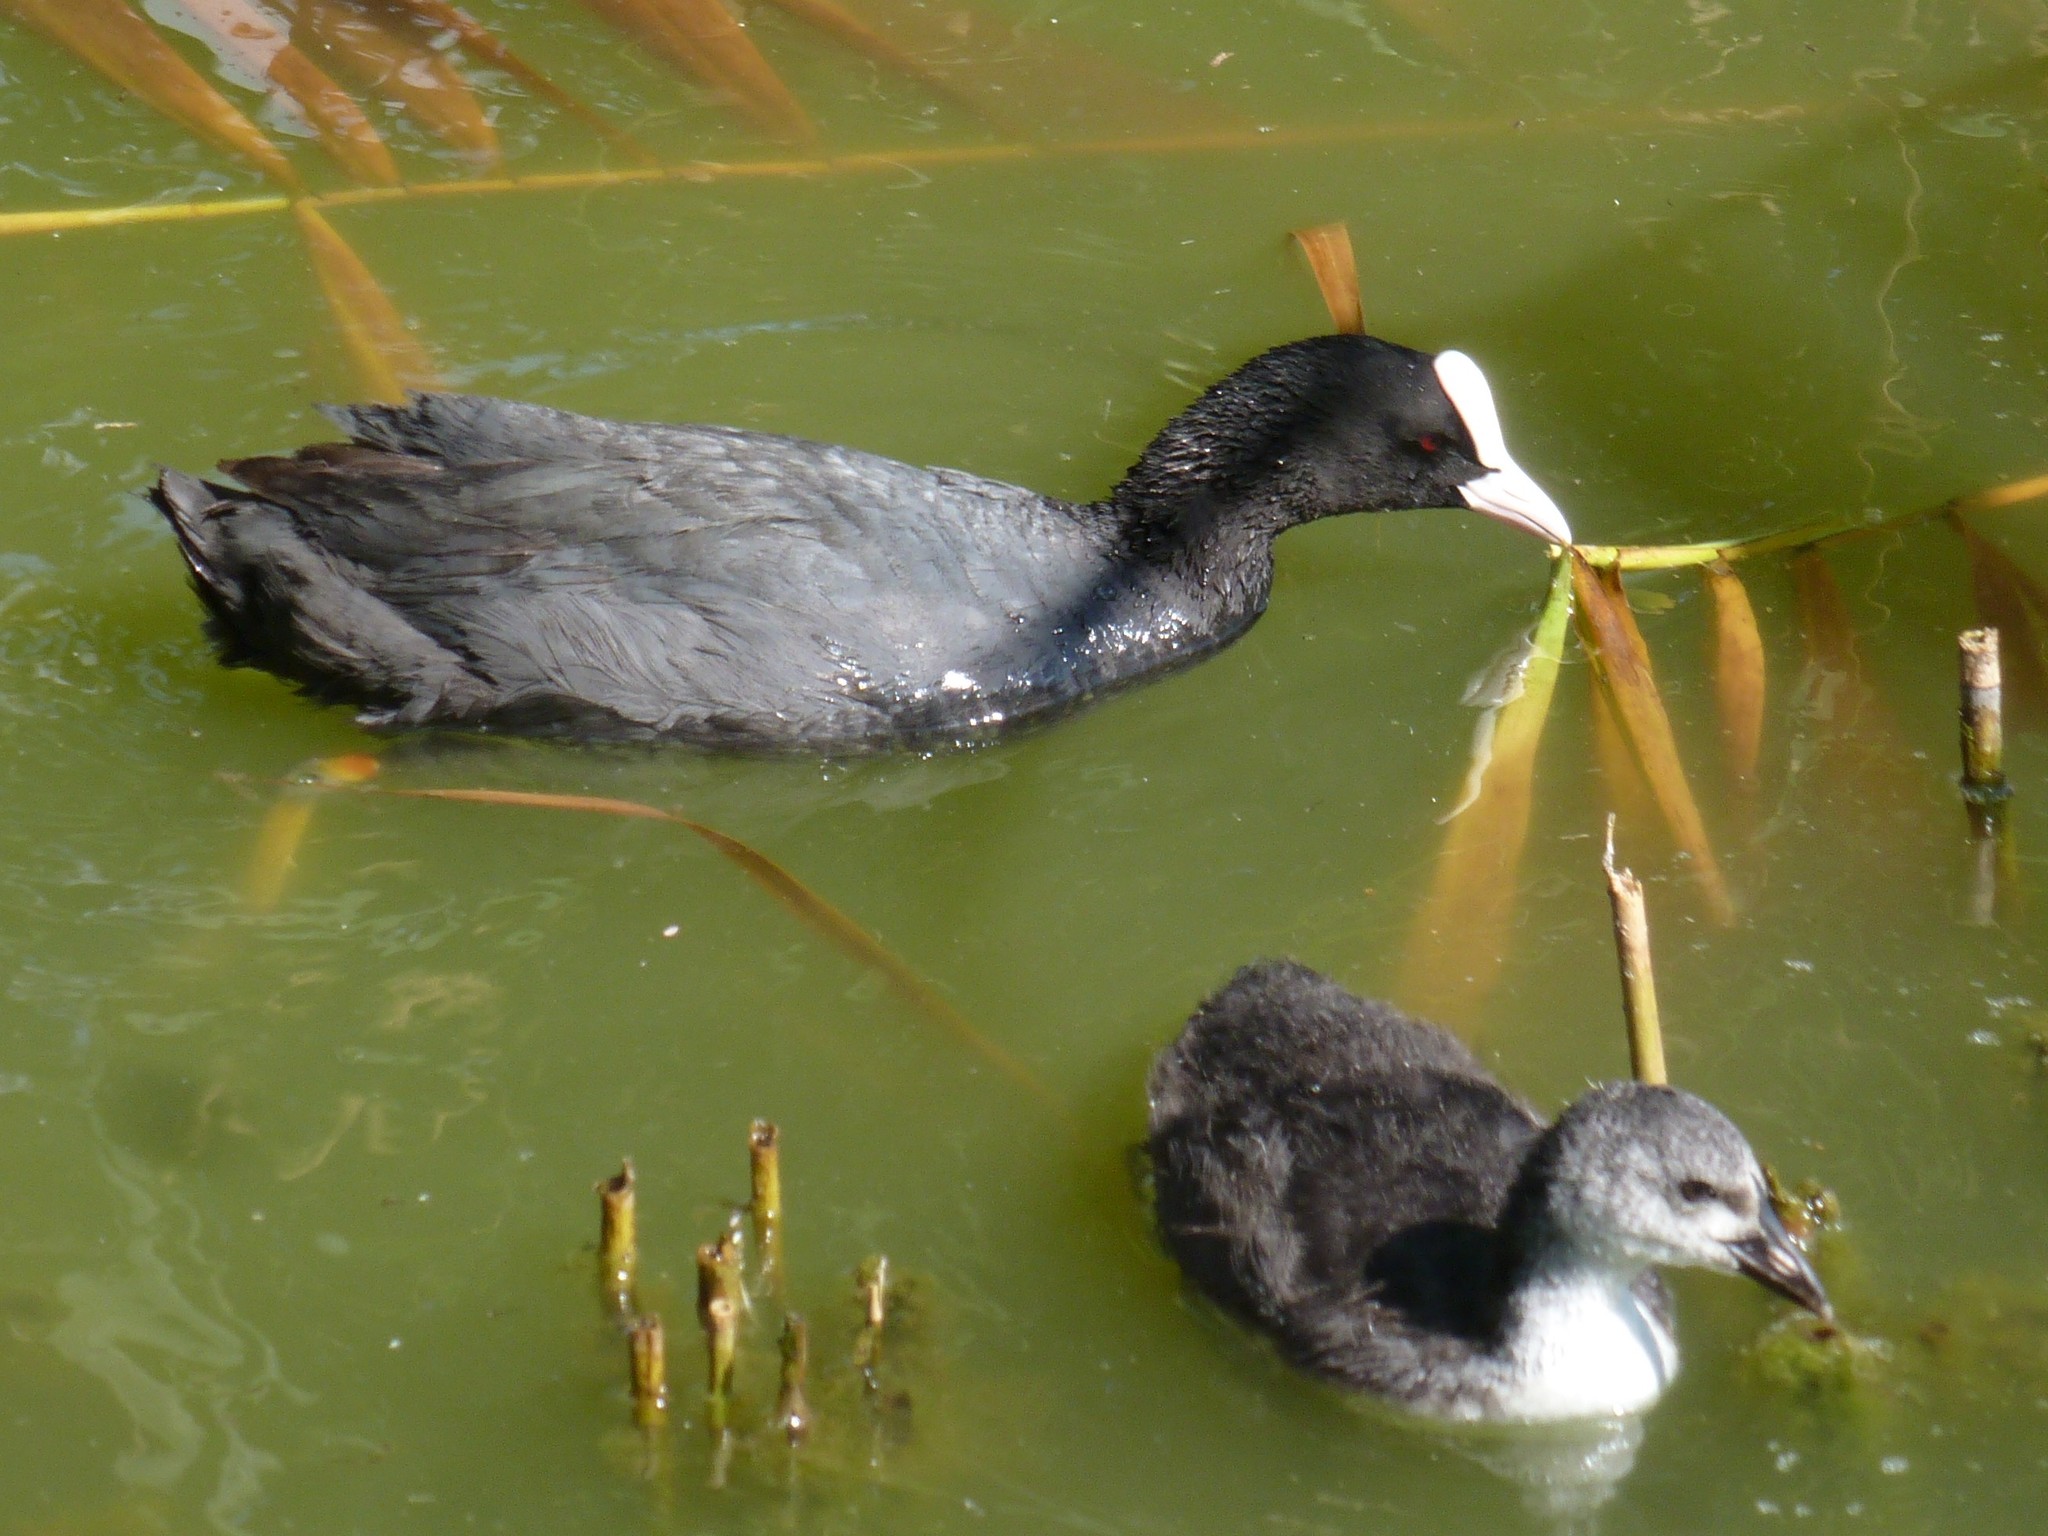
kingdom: Animalia
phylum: Chordata
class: Aves
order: Gruiformes
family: Rallidae
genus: Fulica
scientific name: Fulica atra
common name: Eurasian coot
